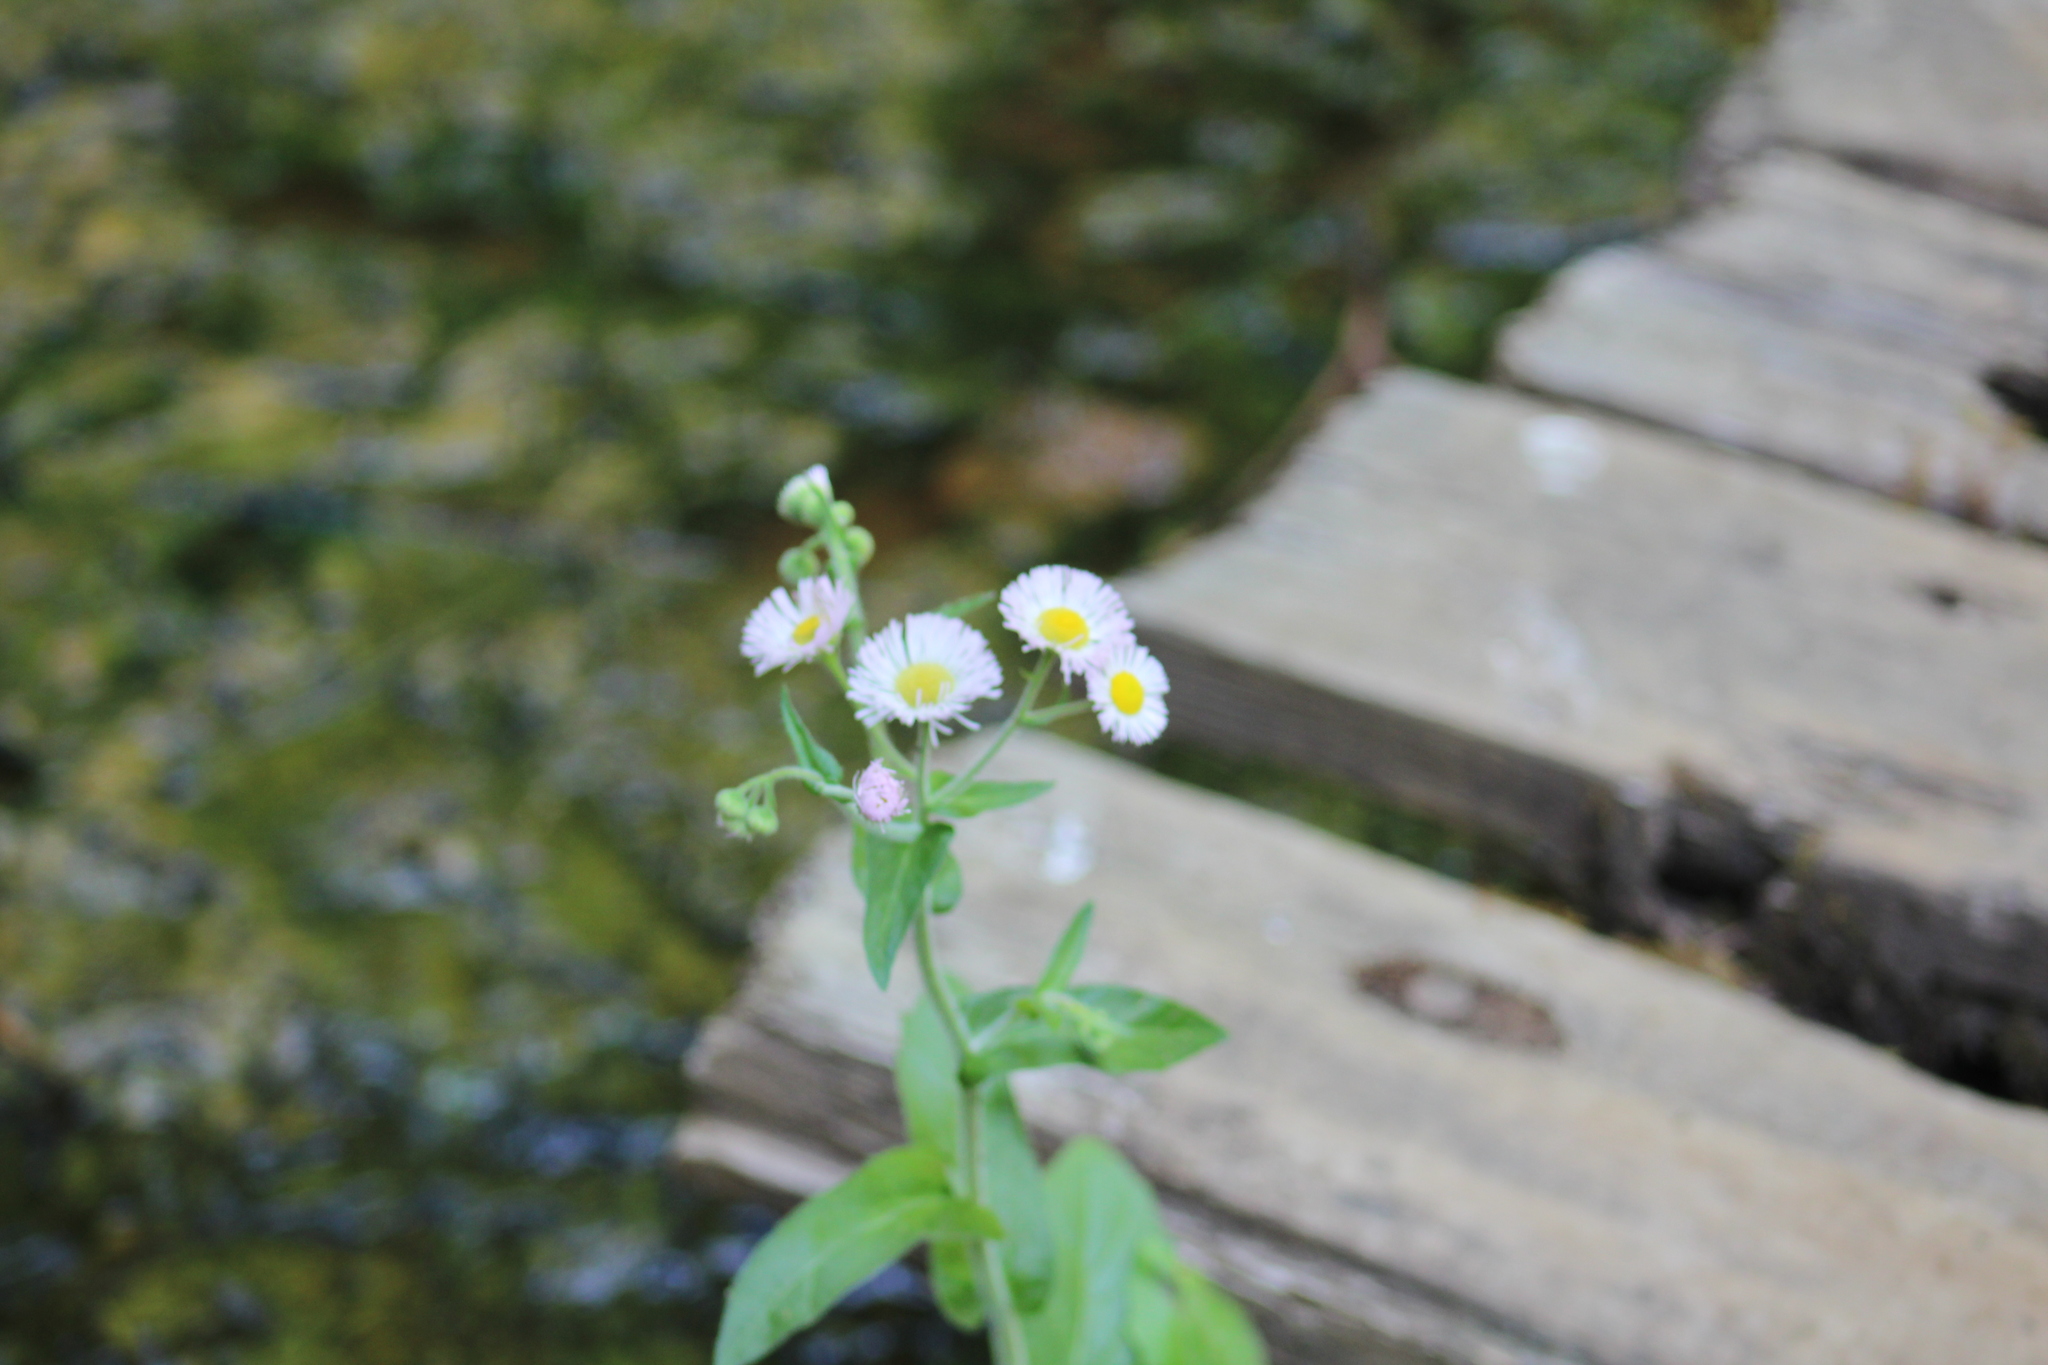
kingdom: Plantae
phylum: Tracheophyta
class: Magnoliopsida
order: Asterales
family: Asteraceae
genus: Erigeron
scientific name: Erigeron philadelphicus
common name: Robin's-plantain
